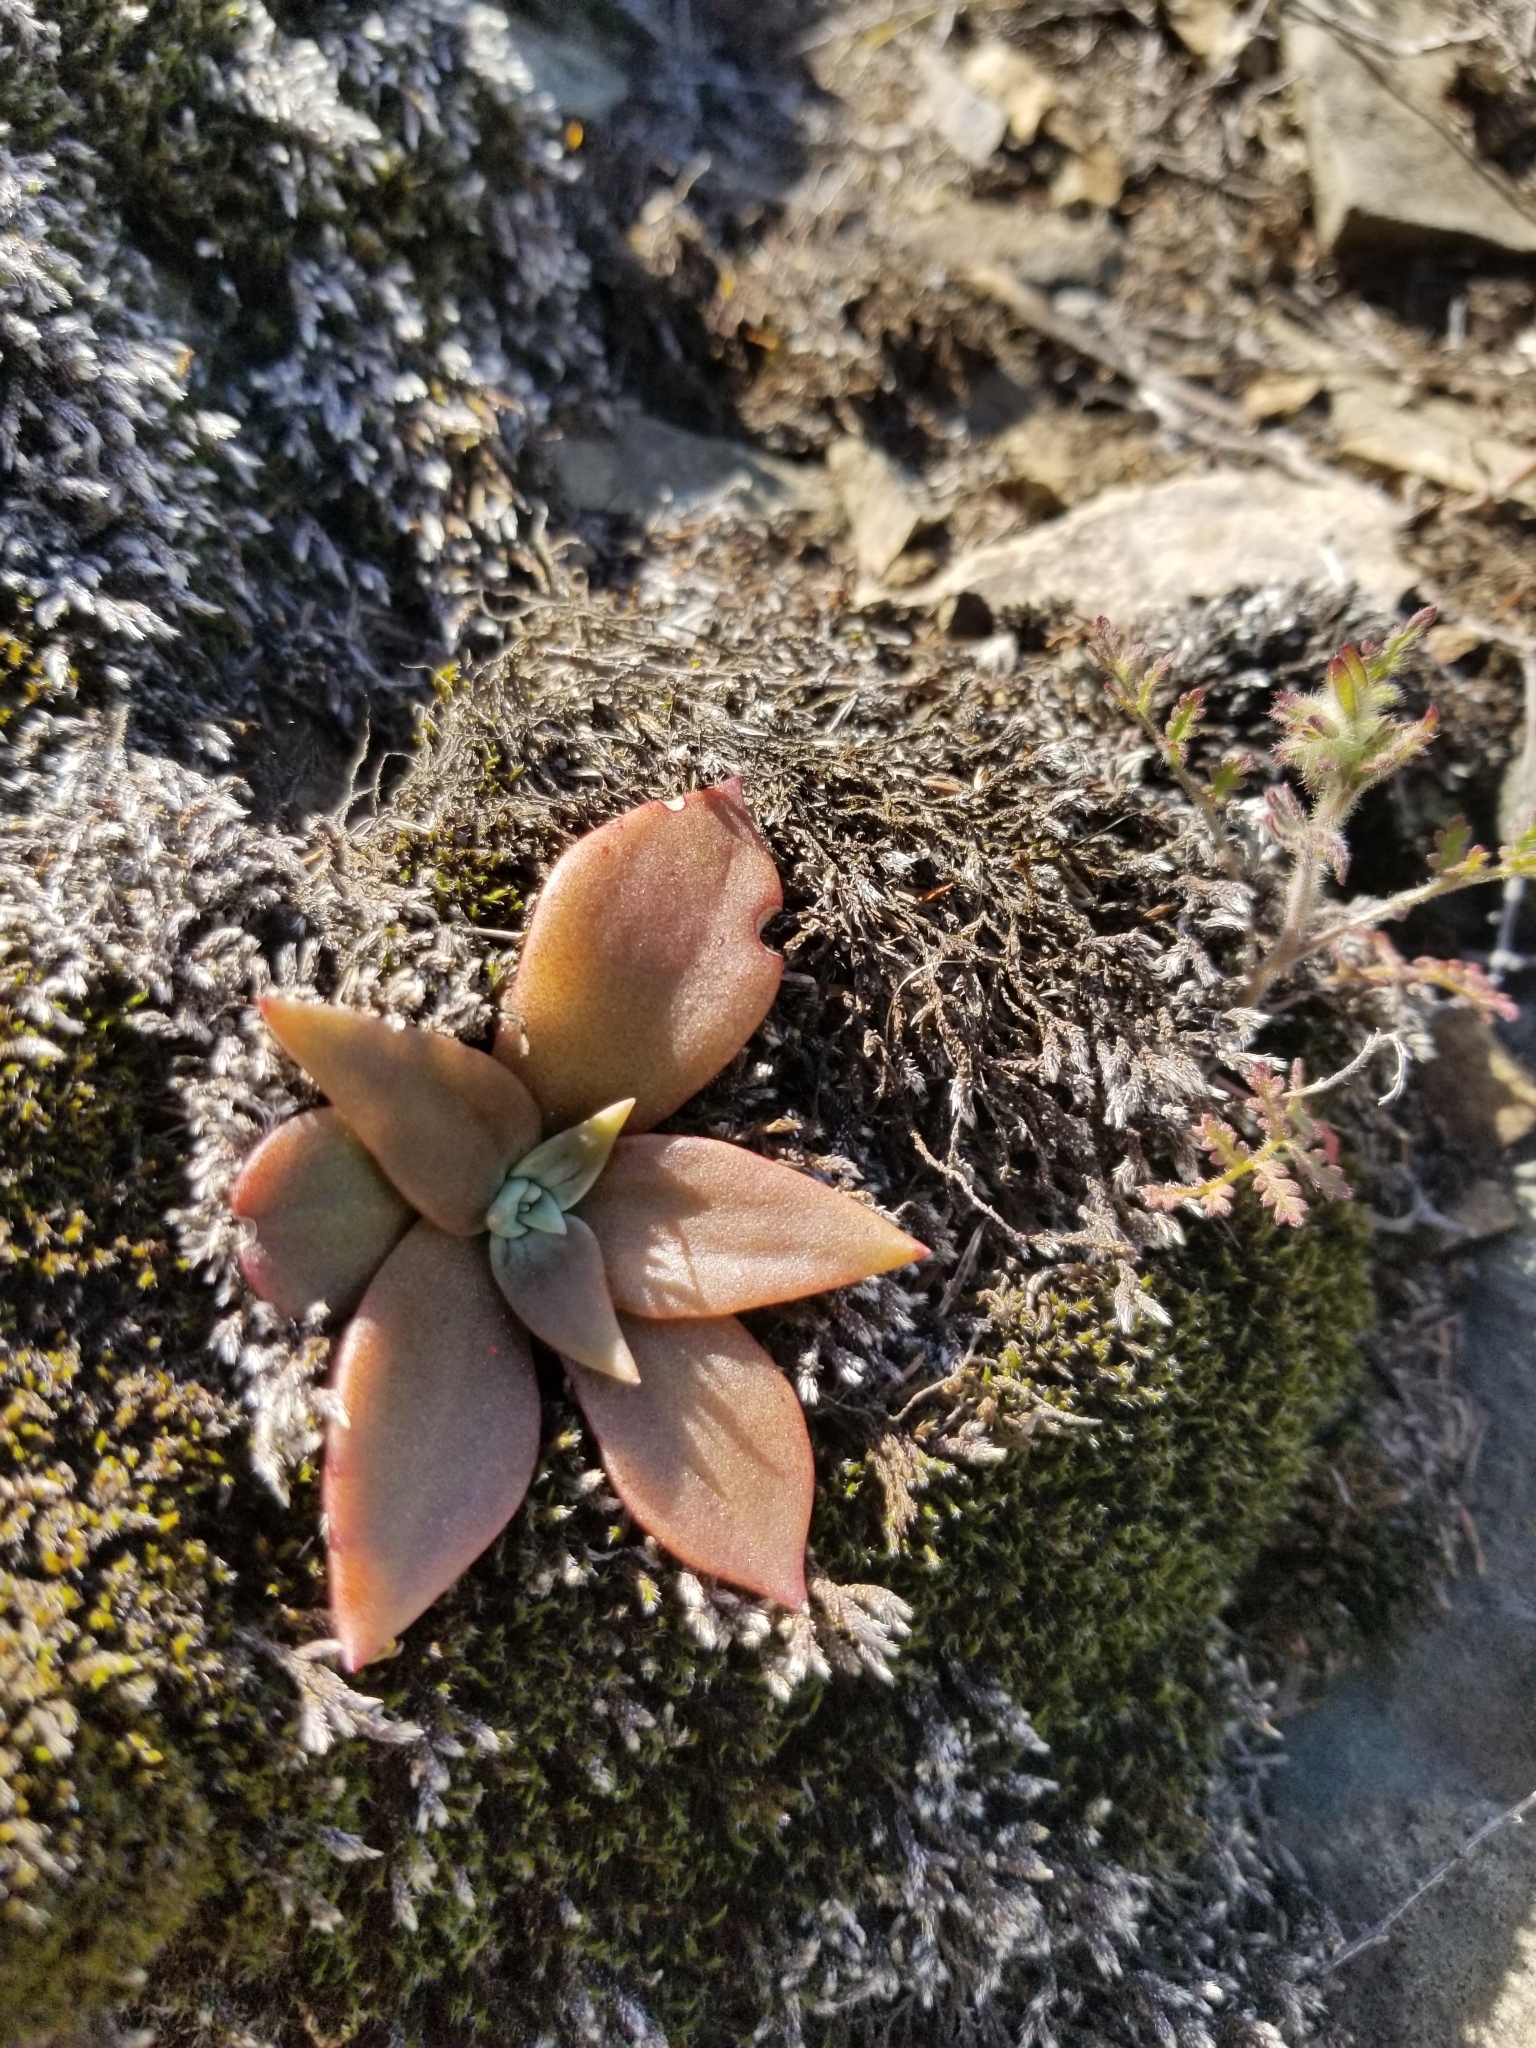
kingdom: Plantae
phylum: Tracheophyta
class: Magnoliopsida
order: Saxifragales
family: Crassulaceae
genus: Dudleya
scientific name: Dudleya cymosa
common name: Canyon dudleya
